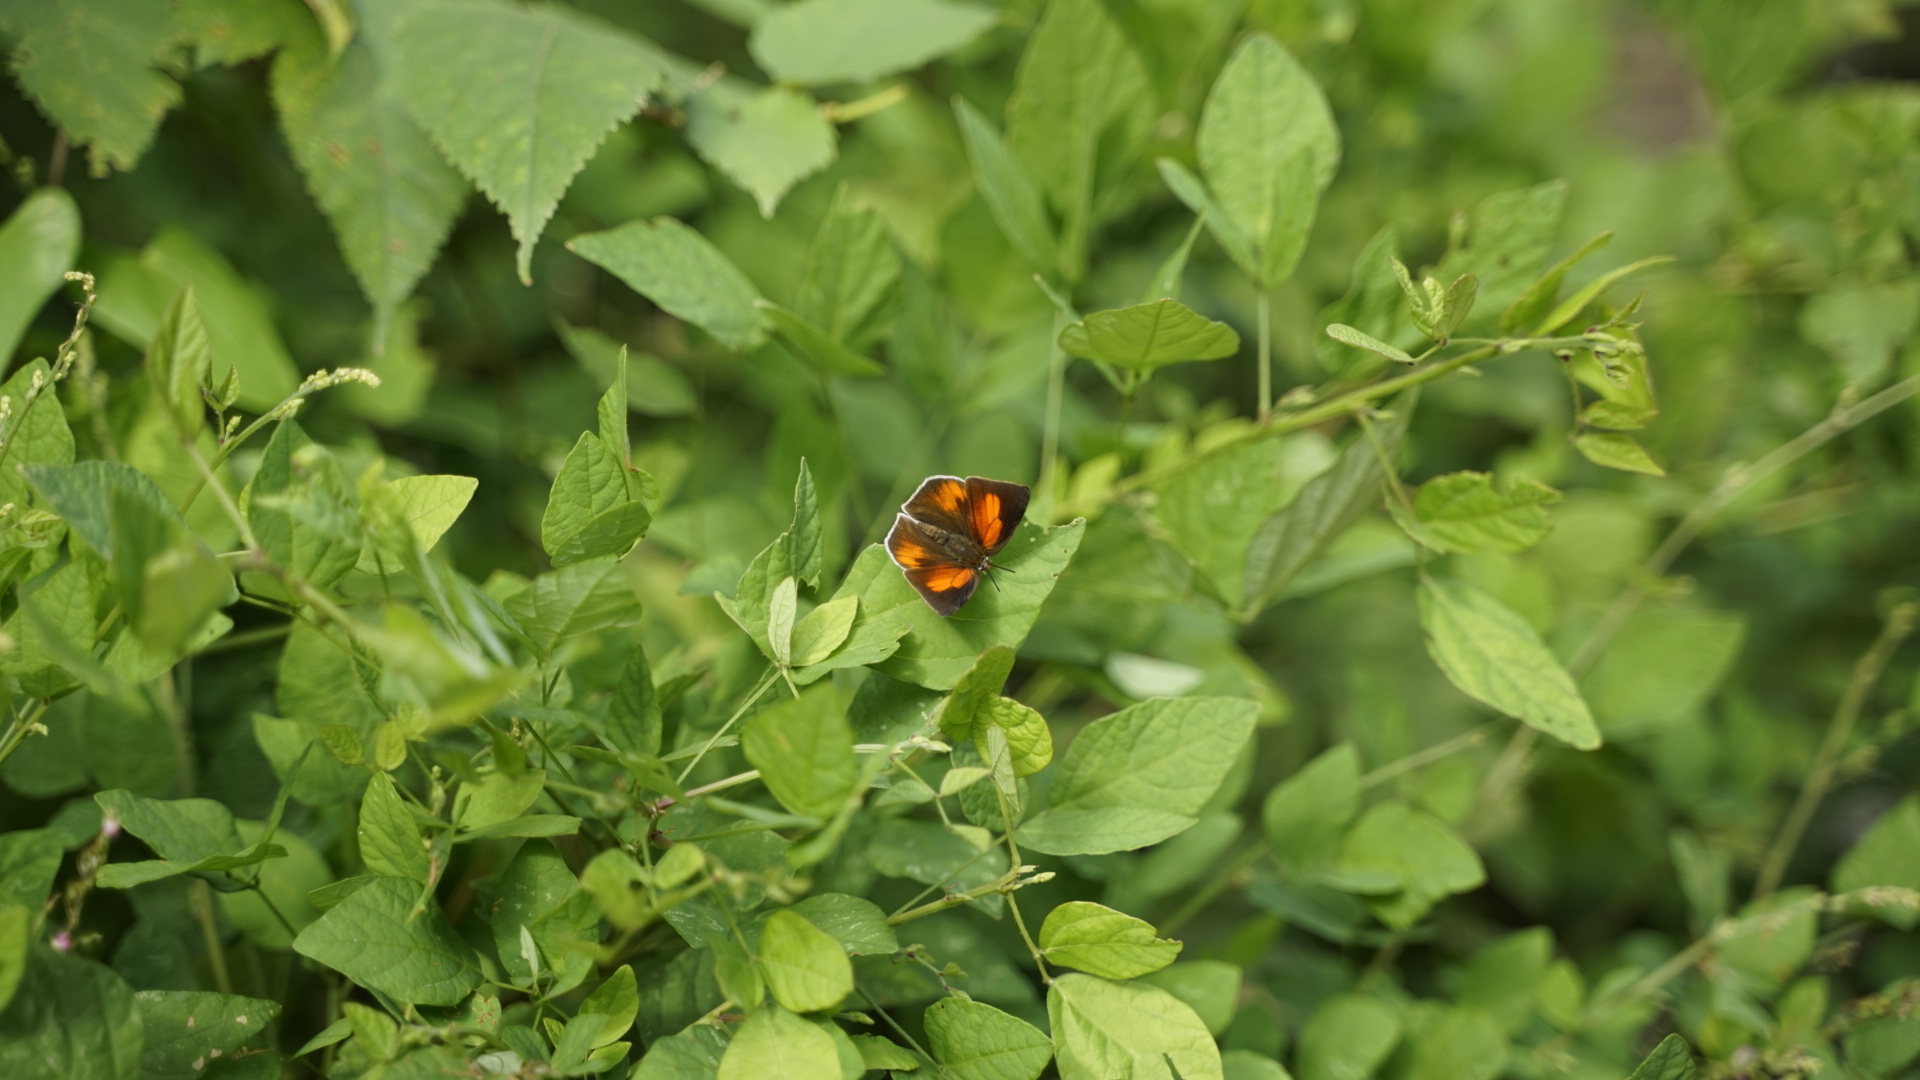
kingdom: Animalia
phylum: Arthropoda
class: Insecta
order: Lepidoptera
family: Lycaenidae
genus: Curetis
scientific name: Curetis acuta
